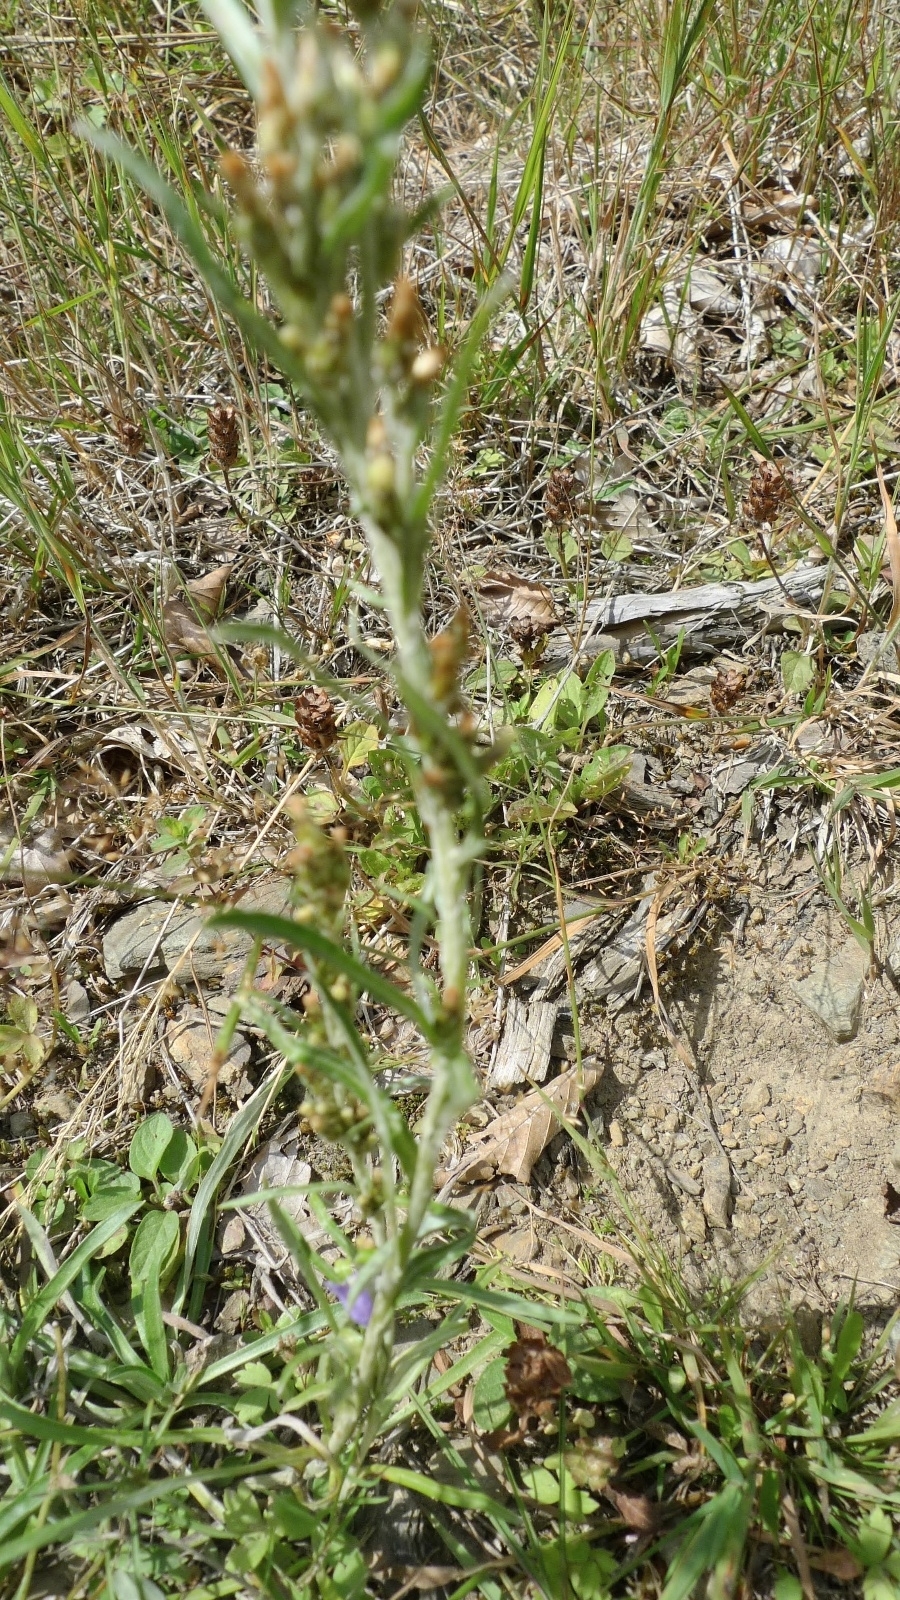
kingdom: Plantae
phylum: Tracheophyta
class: Magnoliopsida
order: Asterales
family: Asteraceae
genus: Omalotheca
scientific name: Omalotheca sylvatica
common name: Heath cudweed
